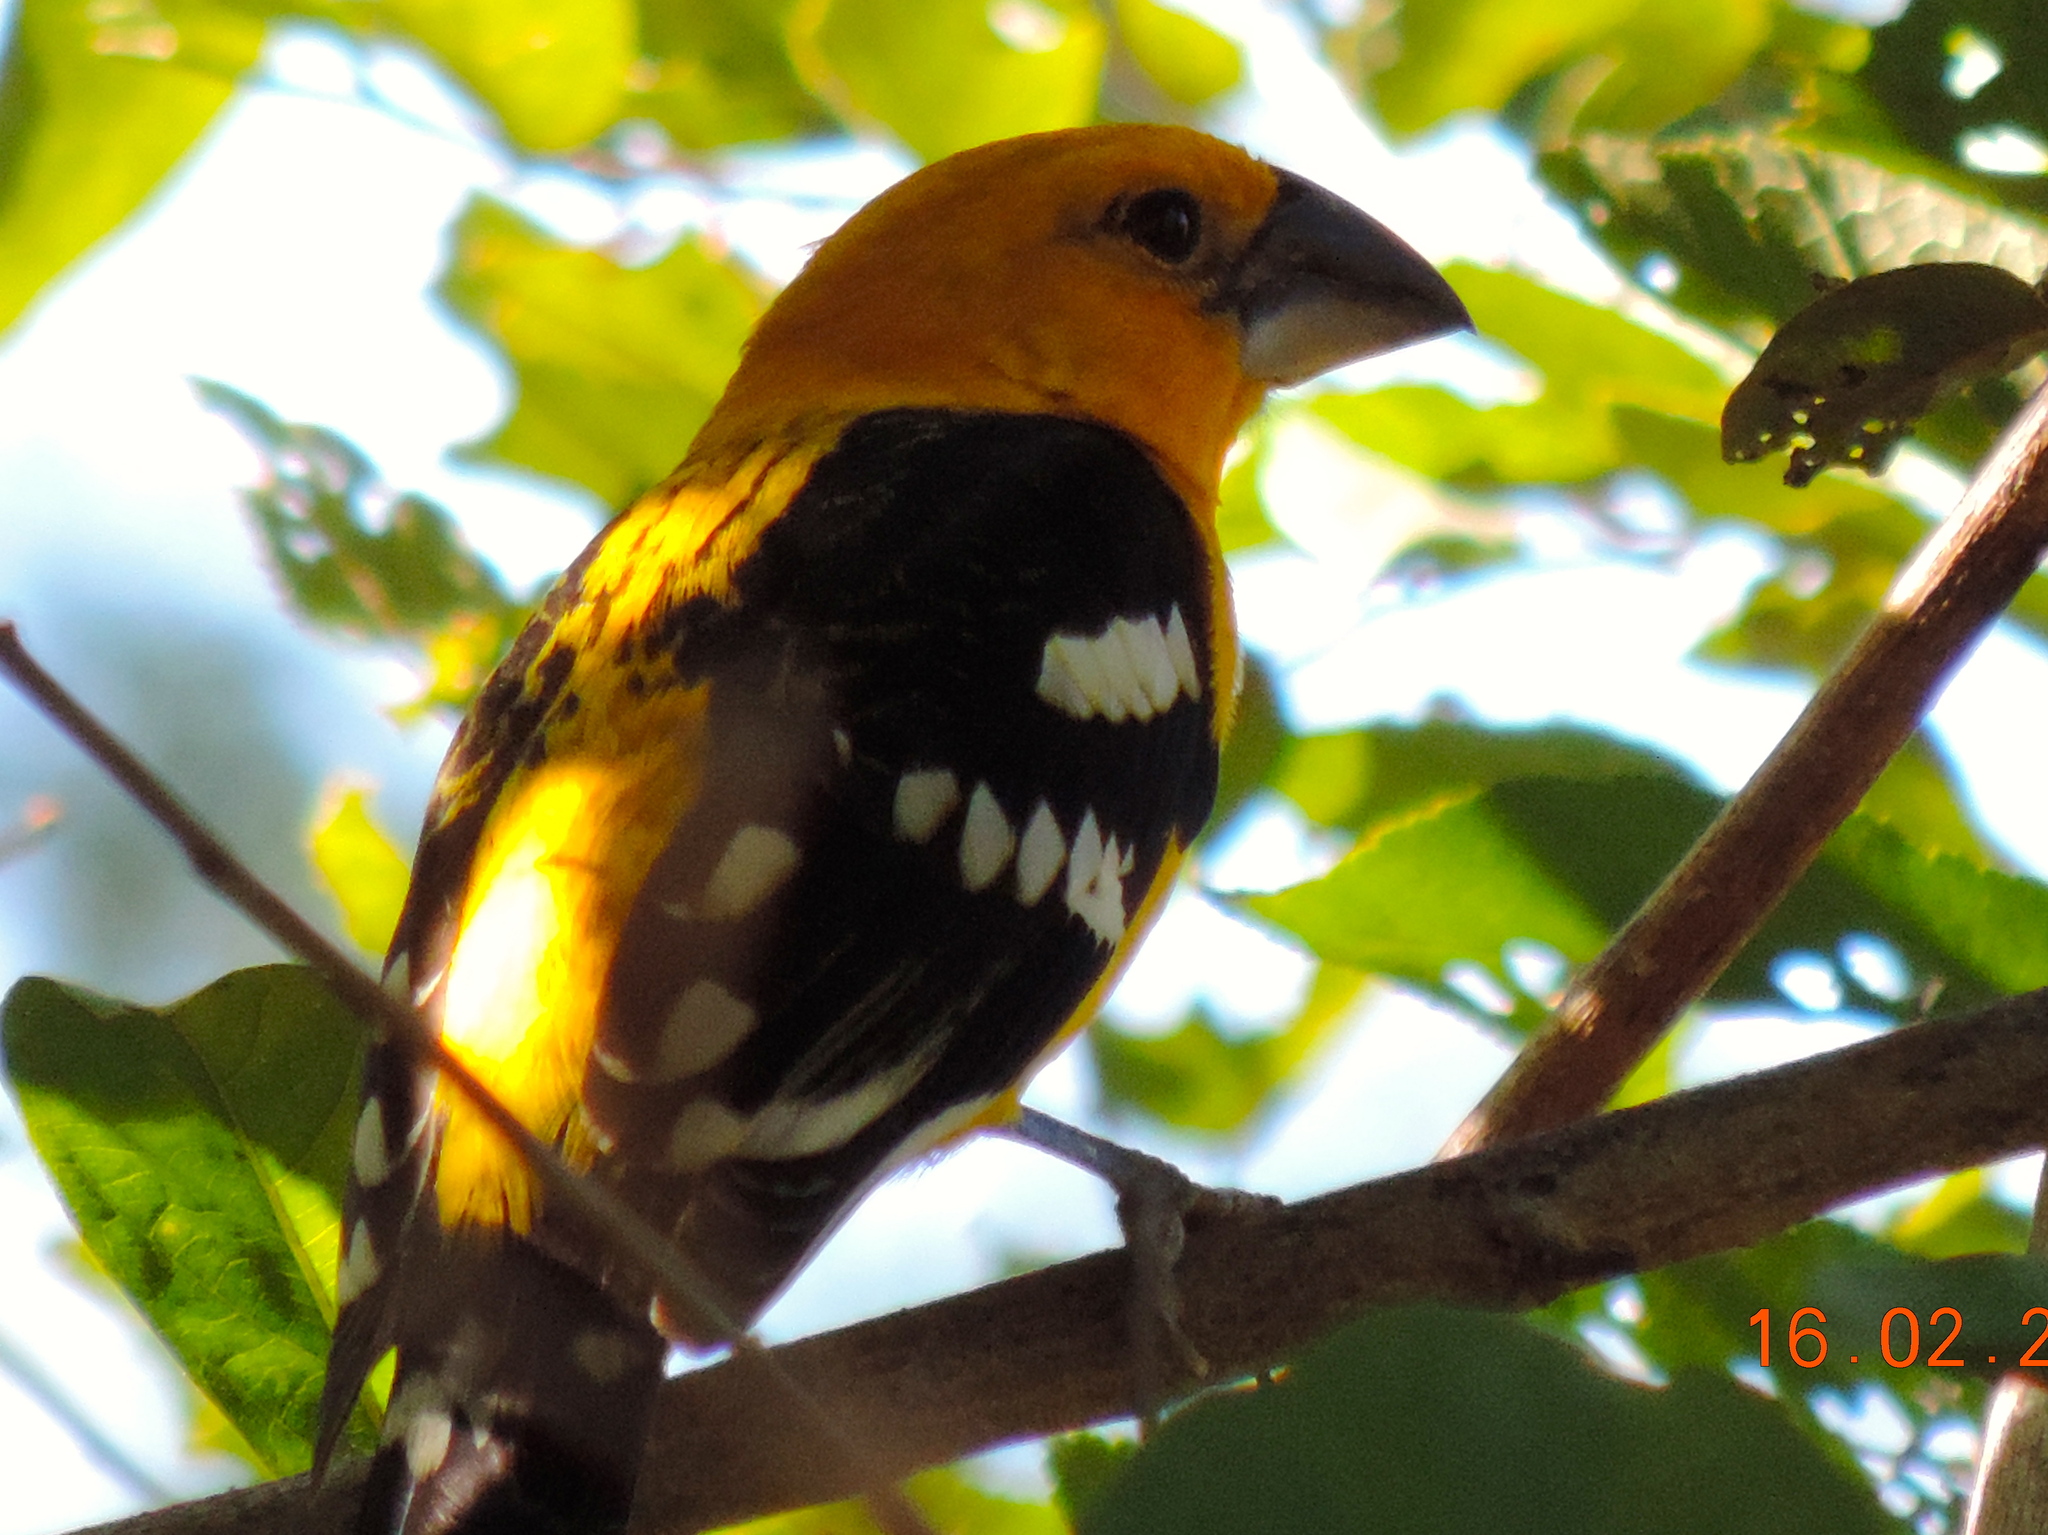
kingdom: Animalia
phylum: Chordata
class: Aves
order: Passeriformes
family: Cardinalidae
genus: Pheucticus
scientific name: Pheucticus chrysopeplus
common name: Yellow grosbeak
